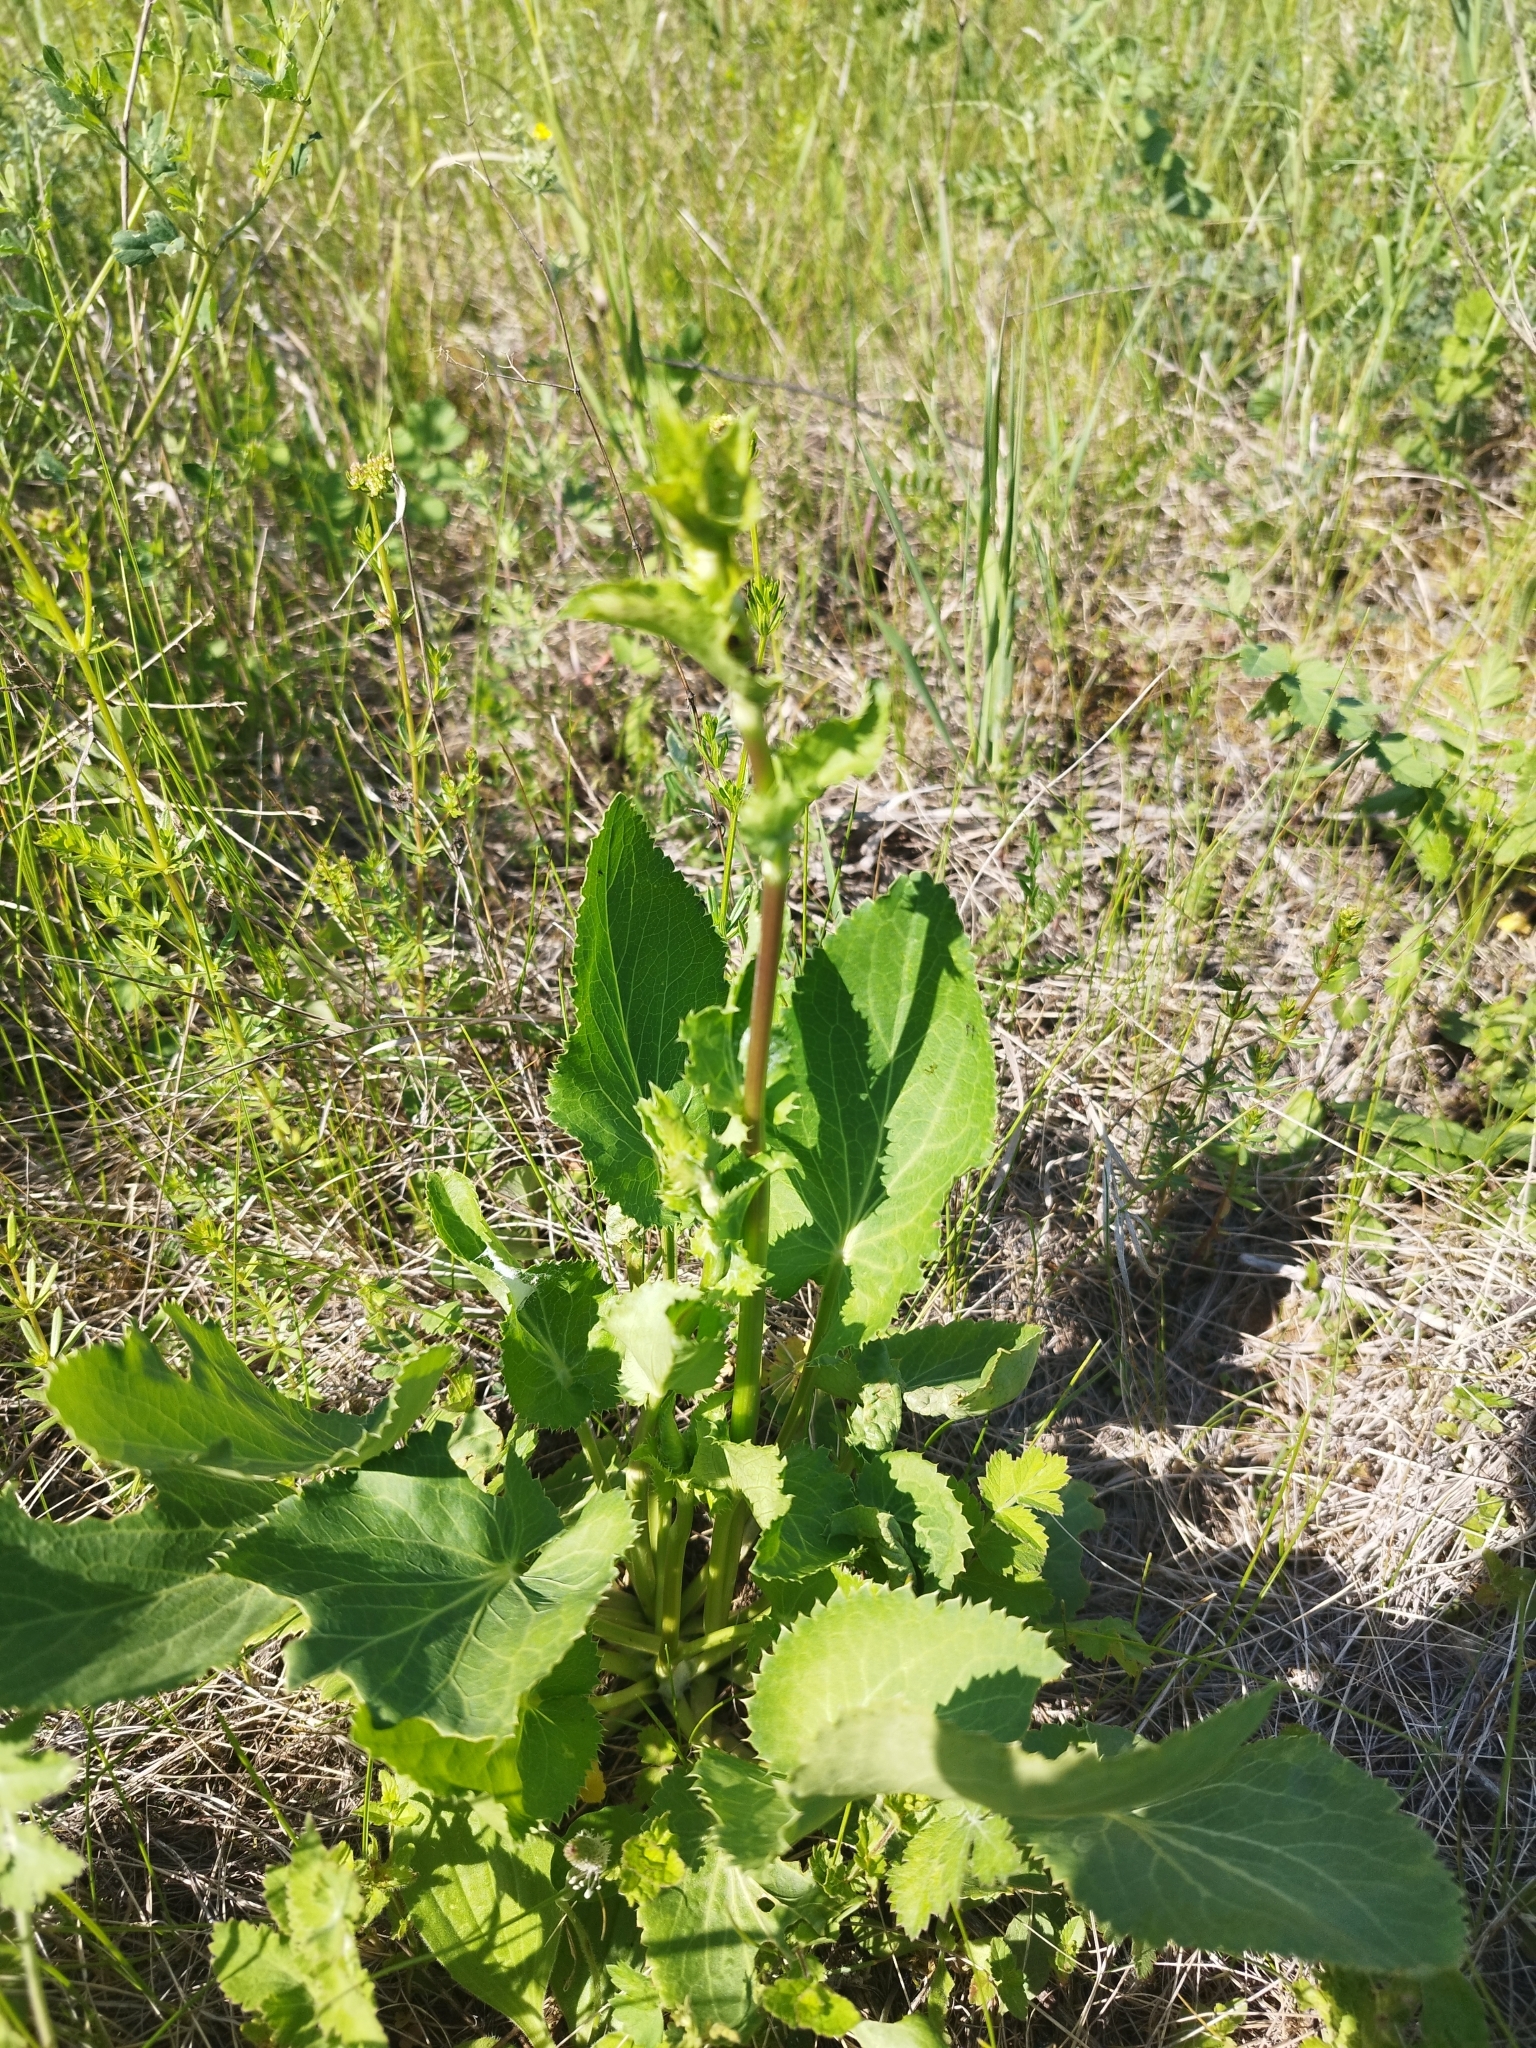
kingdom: Plantae
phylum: Tracheophyta
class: Magnoliopsida
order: Apiales
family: Apiaceae
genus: Eryngium
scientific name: Eryngium planum
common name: Blue eryngo
